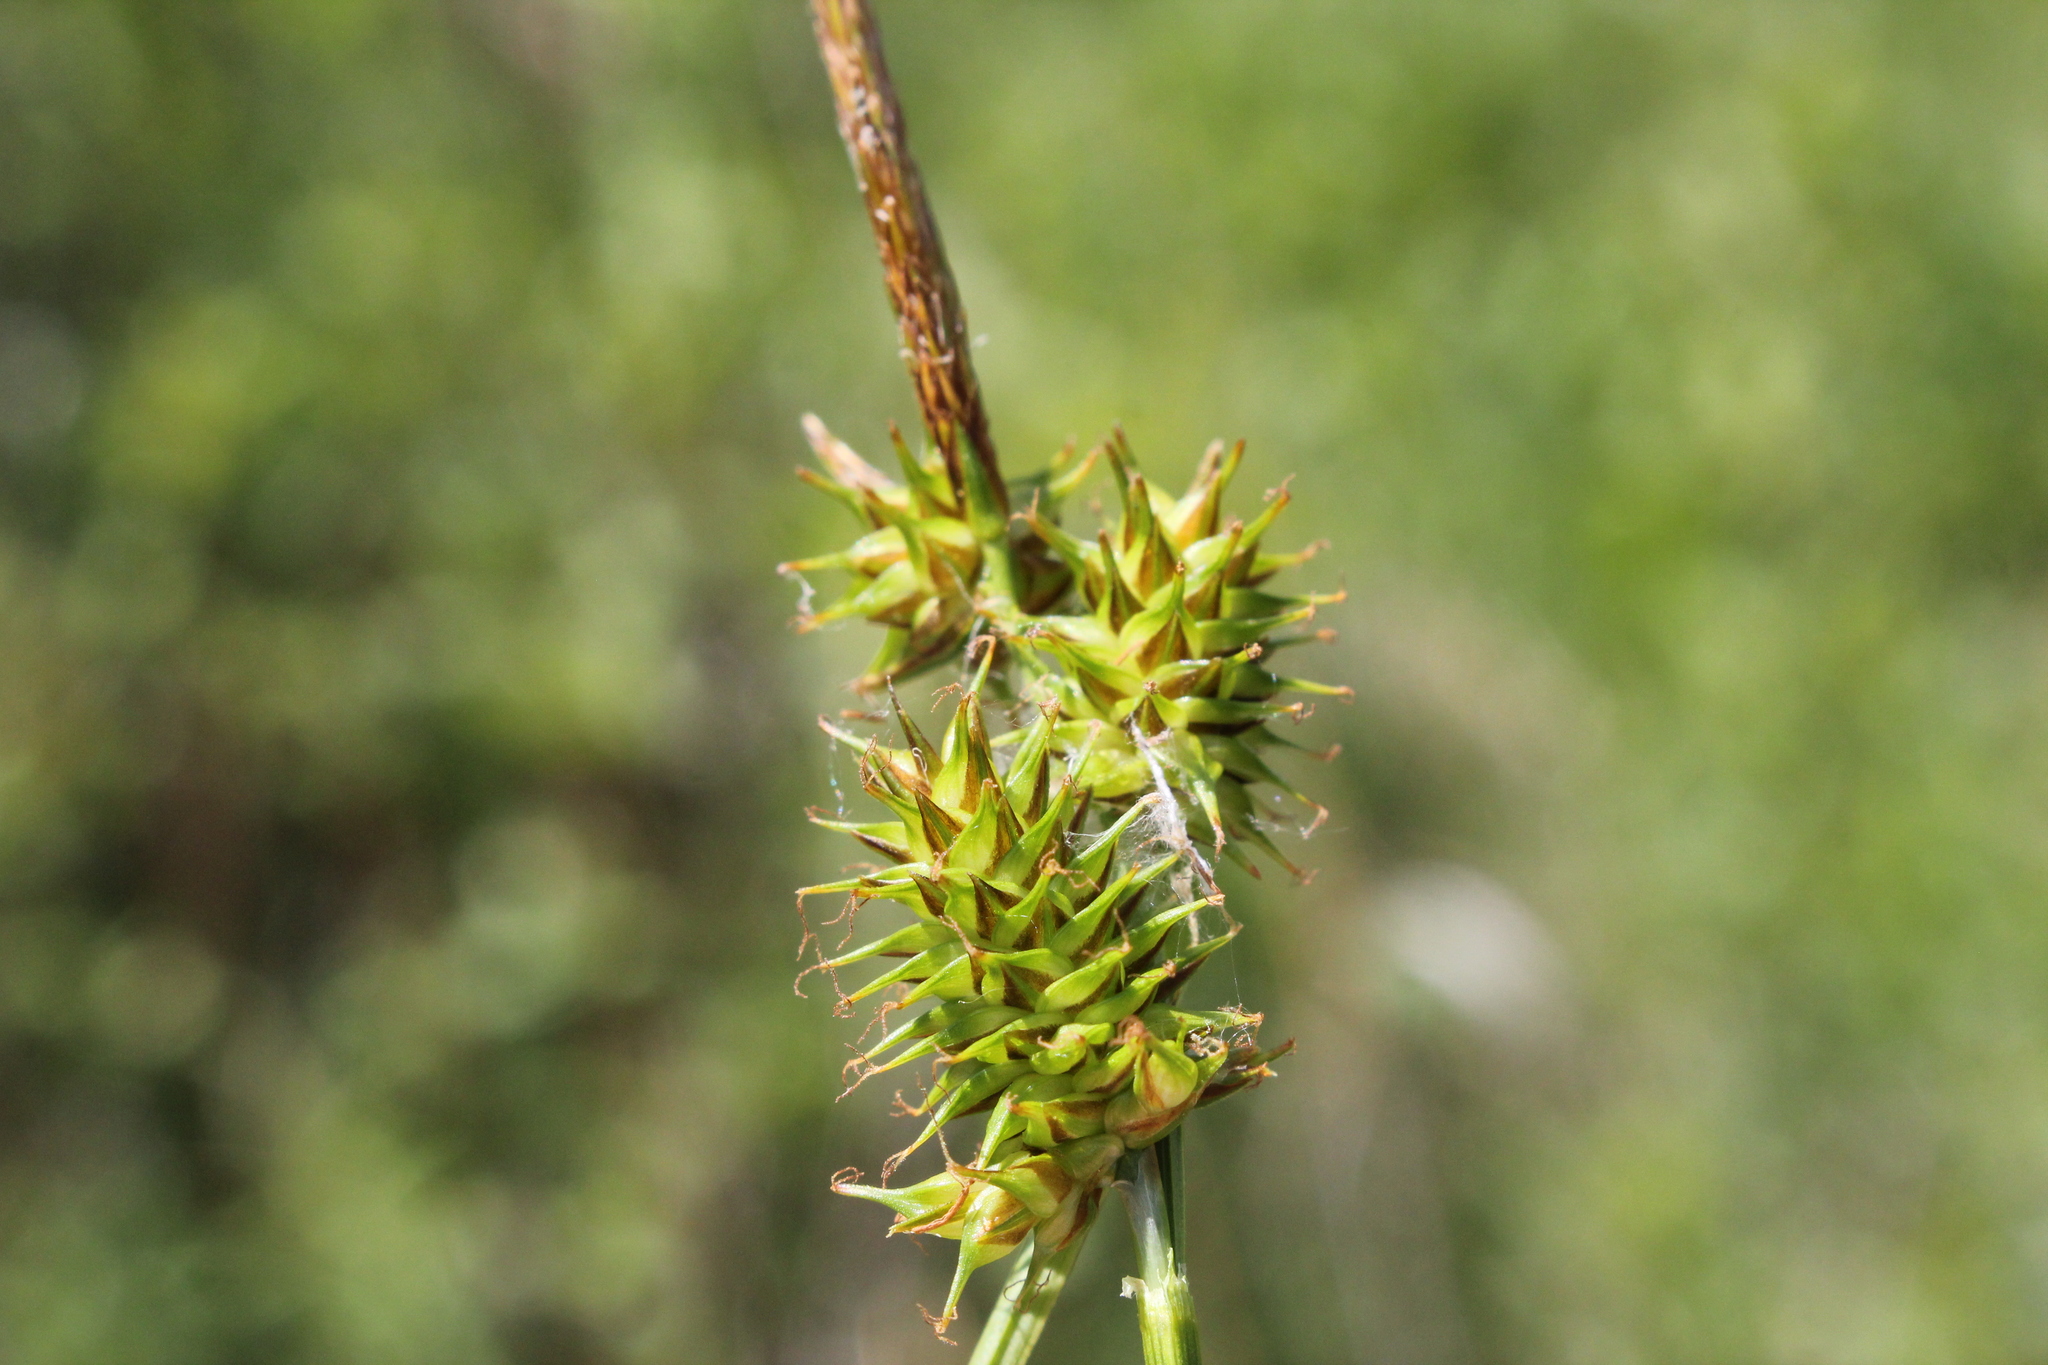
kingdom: Plantae
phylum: Tracheophyta
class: Liliopsida
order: Poales
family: Cyperaceae
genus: Carex
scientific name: Carex flava
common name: Large yellow-sedge
